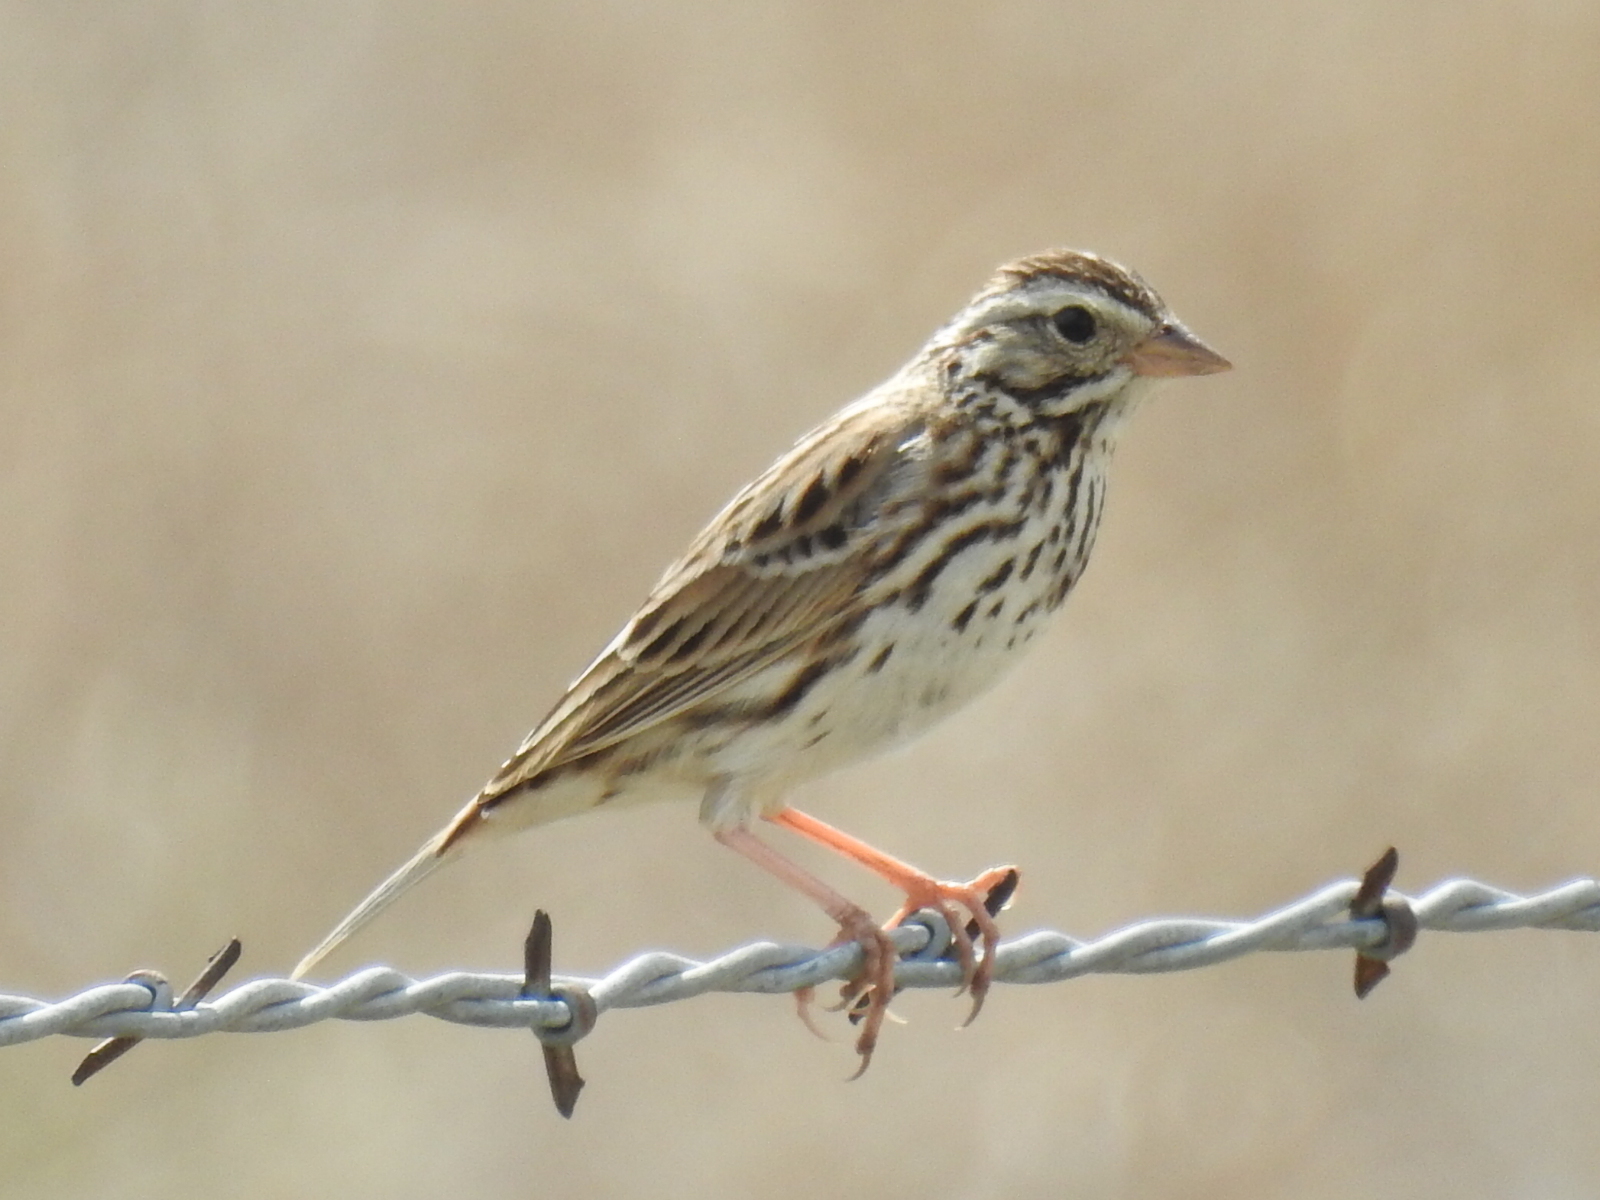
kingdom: Animalia
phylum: Chordata
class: Aves
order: Passeriformes
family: Passerellidae
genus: Passerculus
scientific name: Passerculus sandwichensis
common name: Savannah sparrow
